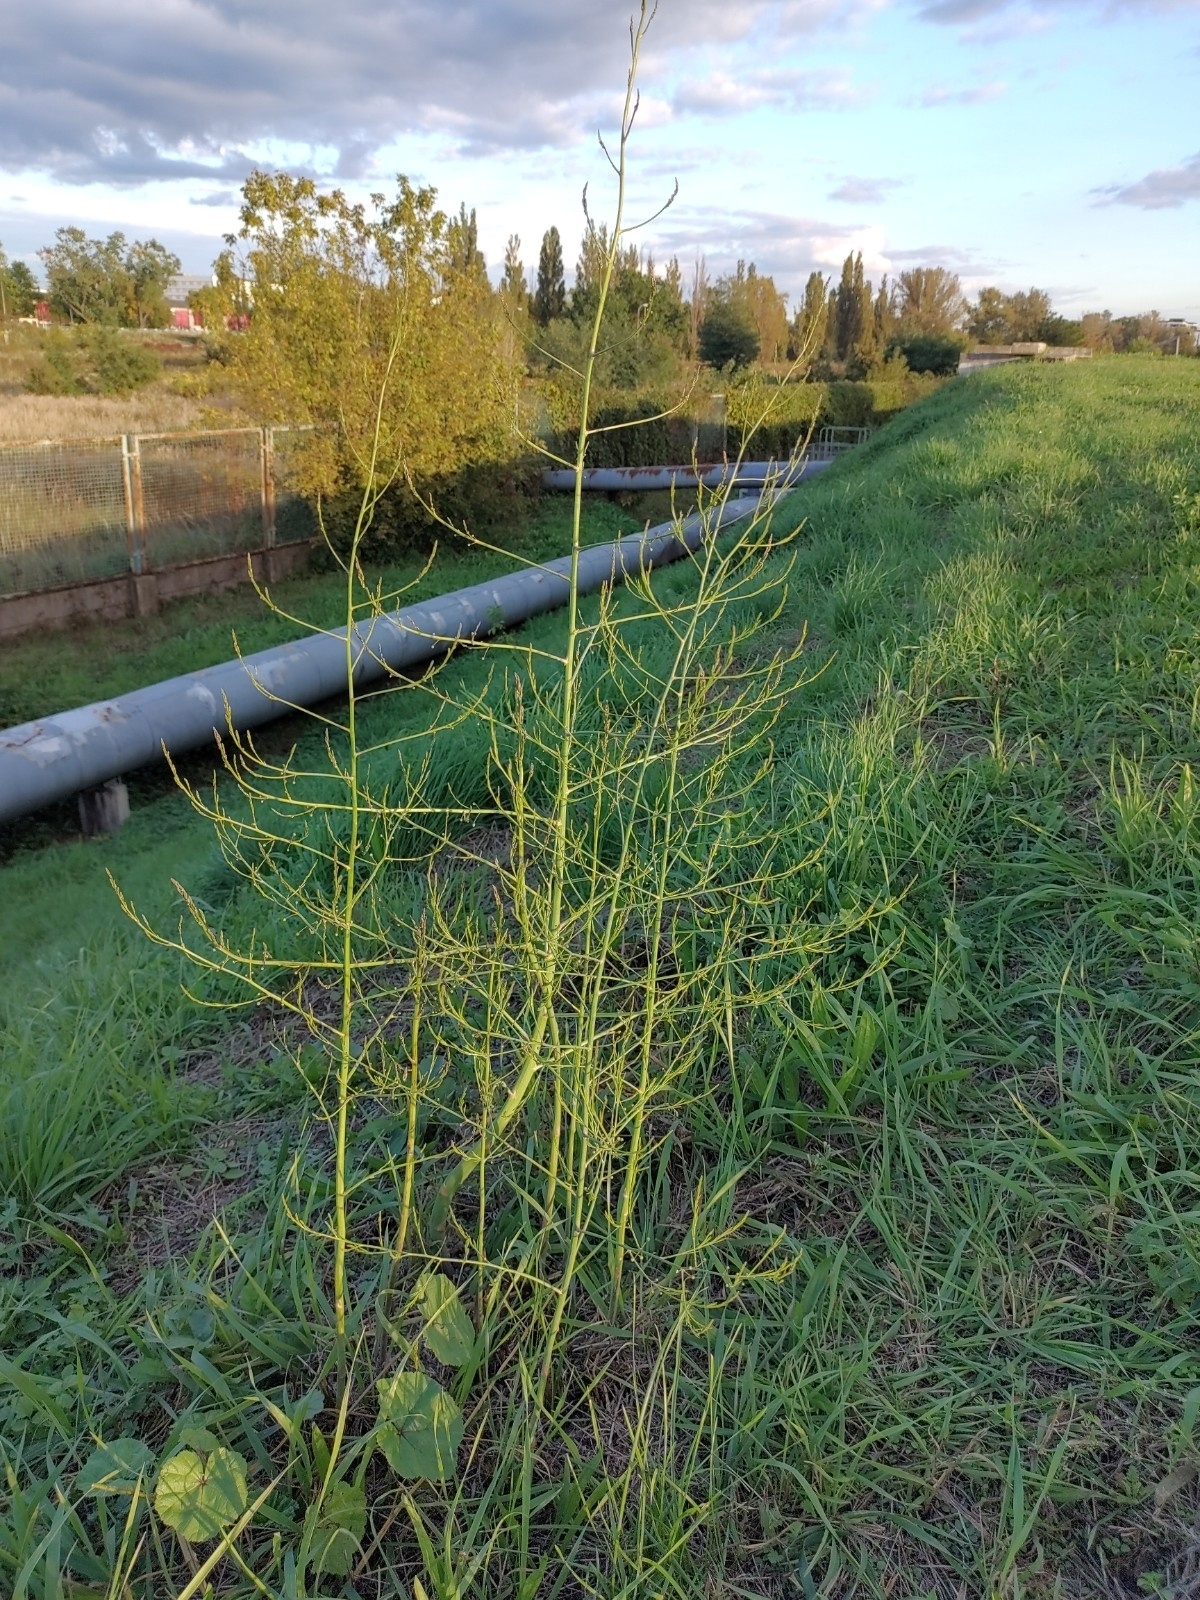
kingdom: Plantae
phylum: Tracheophyta
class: Liliopsida
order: Asparagales
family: Asparagaceae
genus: Asparagus
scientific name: Asparagus officinalis
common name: Garden asparagus
